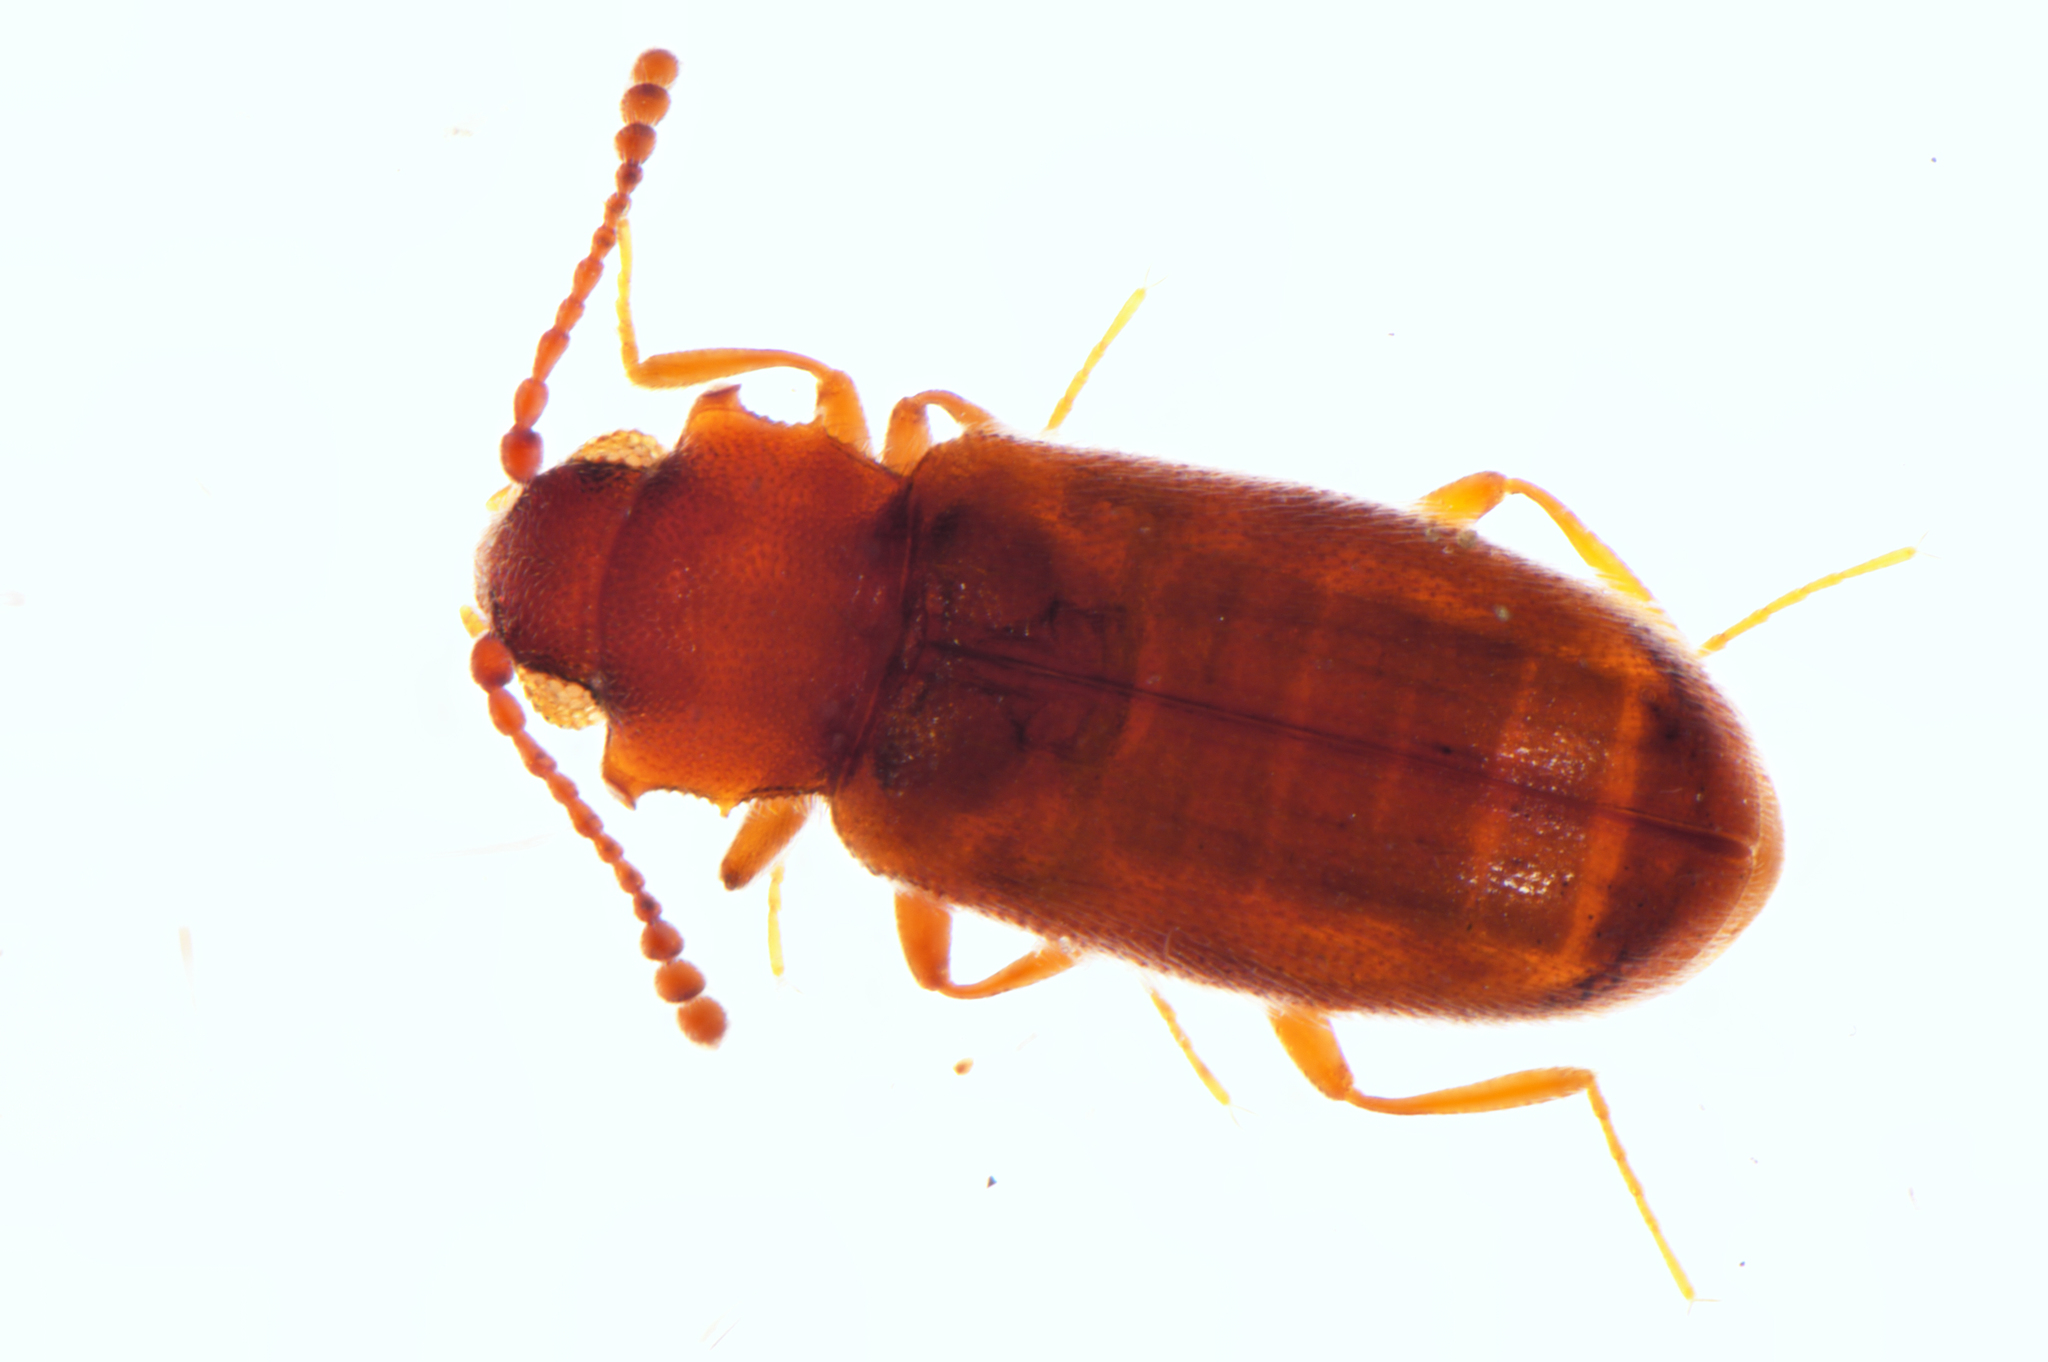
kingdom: Animalia
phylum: Arthropoda
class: Insecta
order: Coleoptera
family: Cryptophagidae
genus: Cryptophagus
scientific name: Cryptophagus acutangulus
